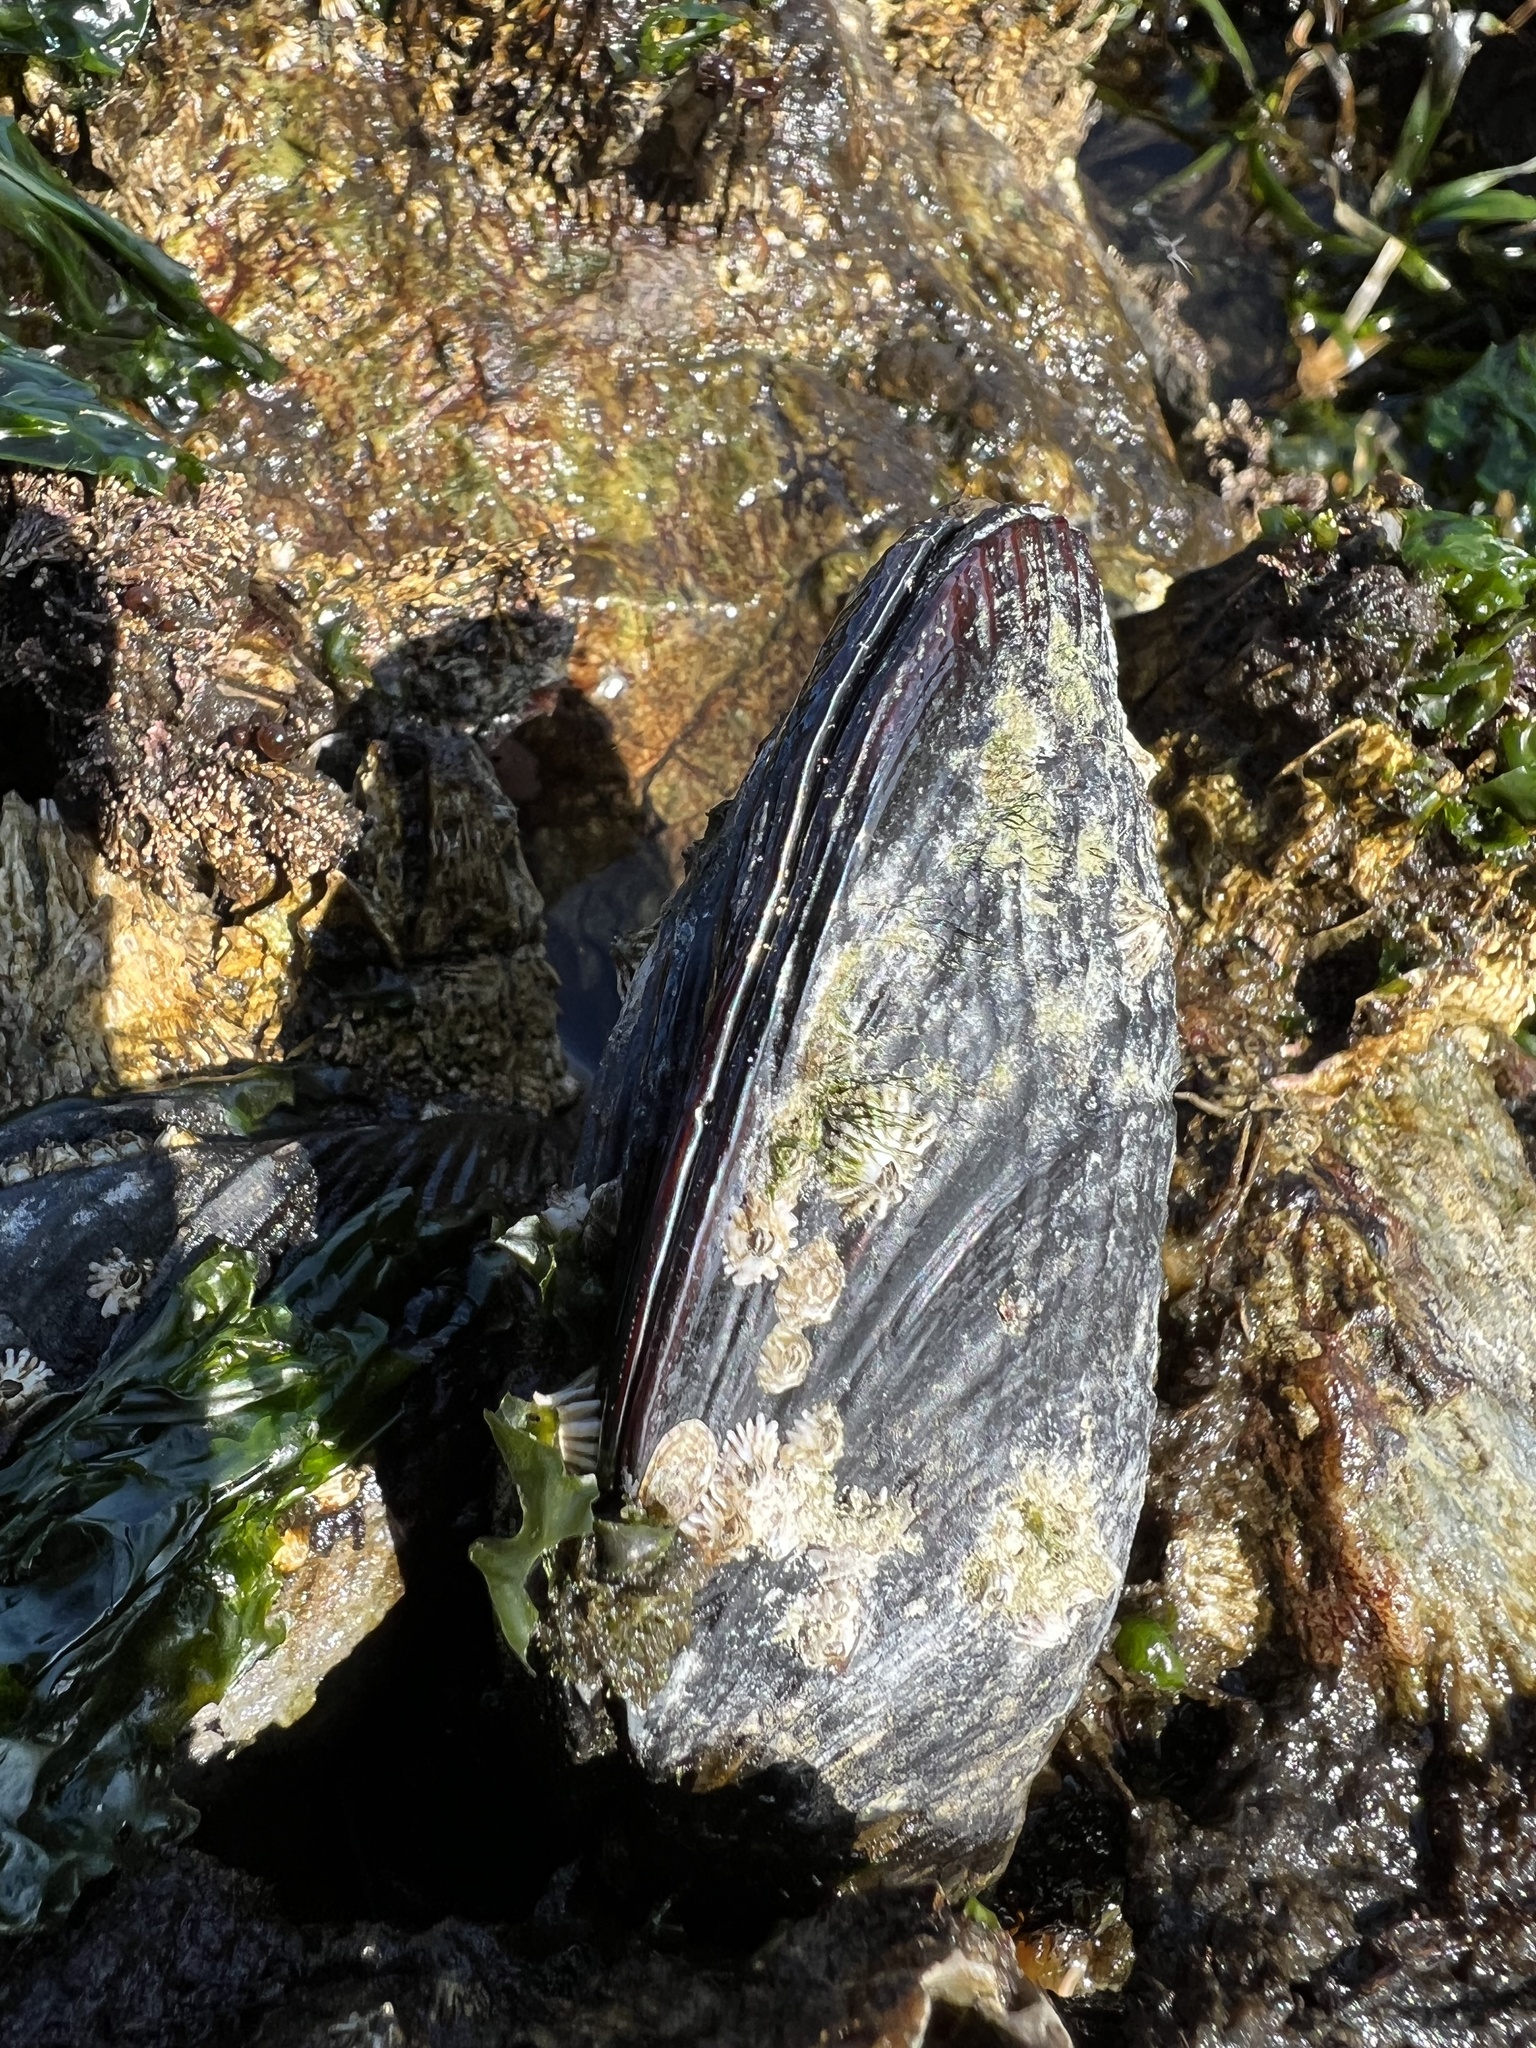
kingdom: Animalia
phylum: Mollusca
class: Bivalvia
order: Mytilida
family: Mytilidae
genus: Mytilus
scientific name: Mytilus californianus
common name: California mussel
